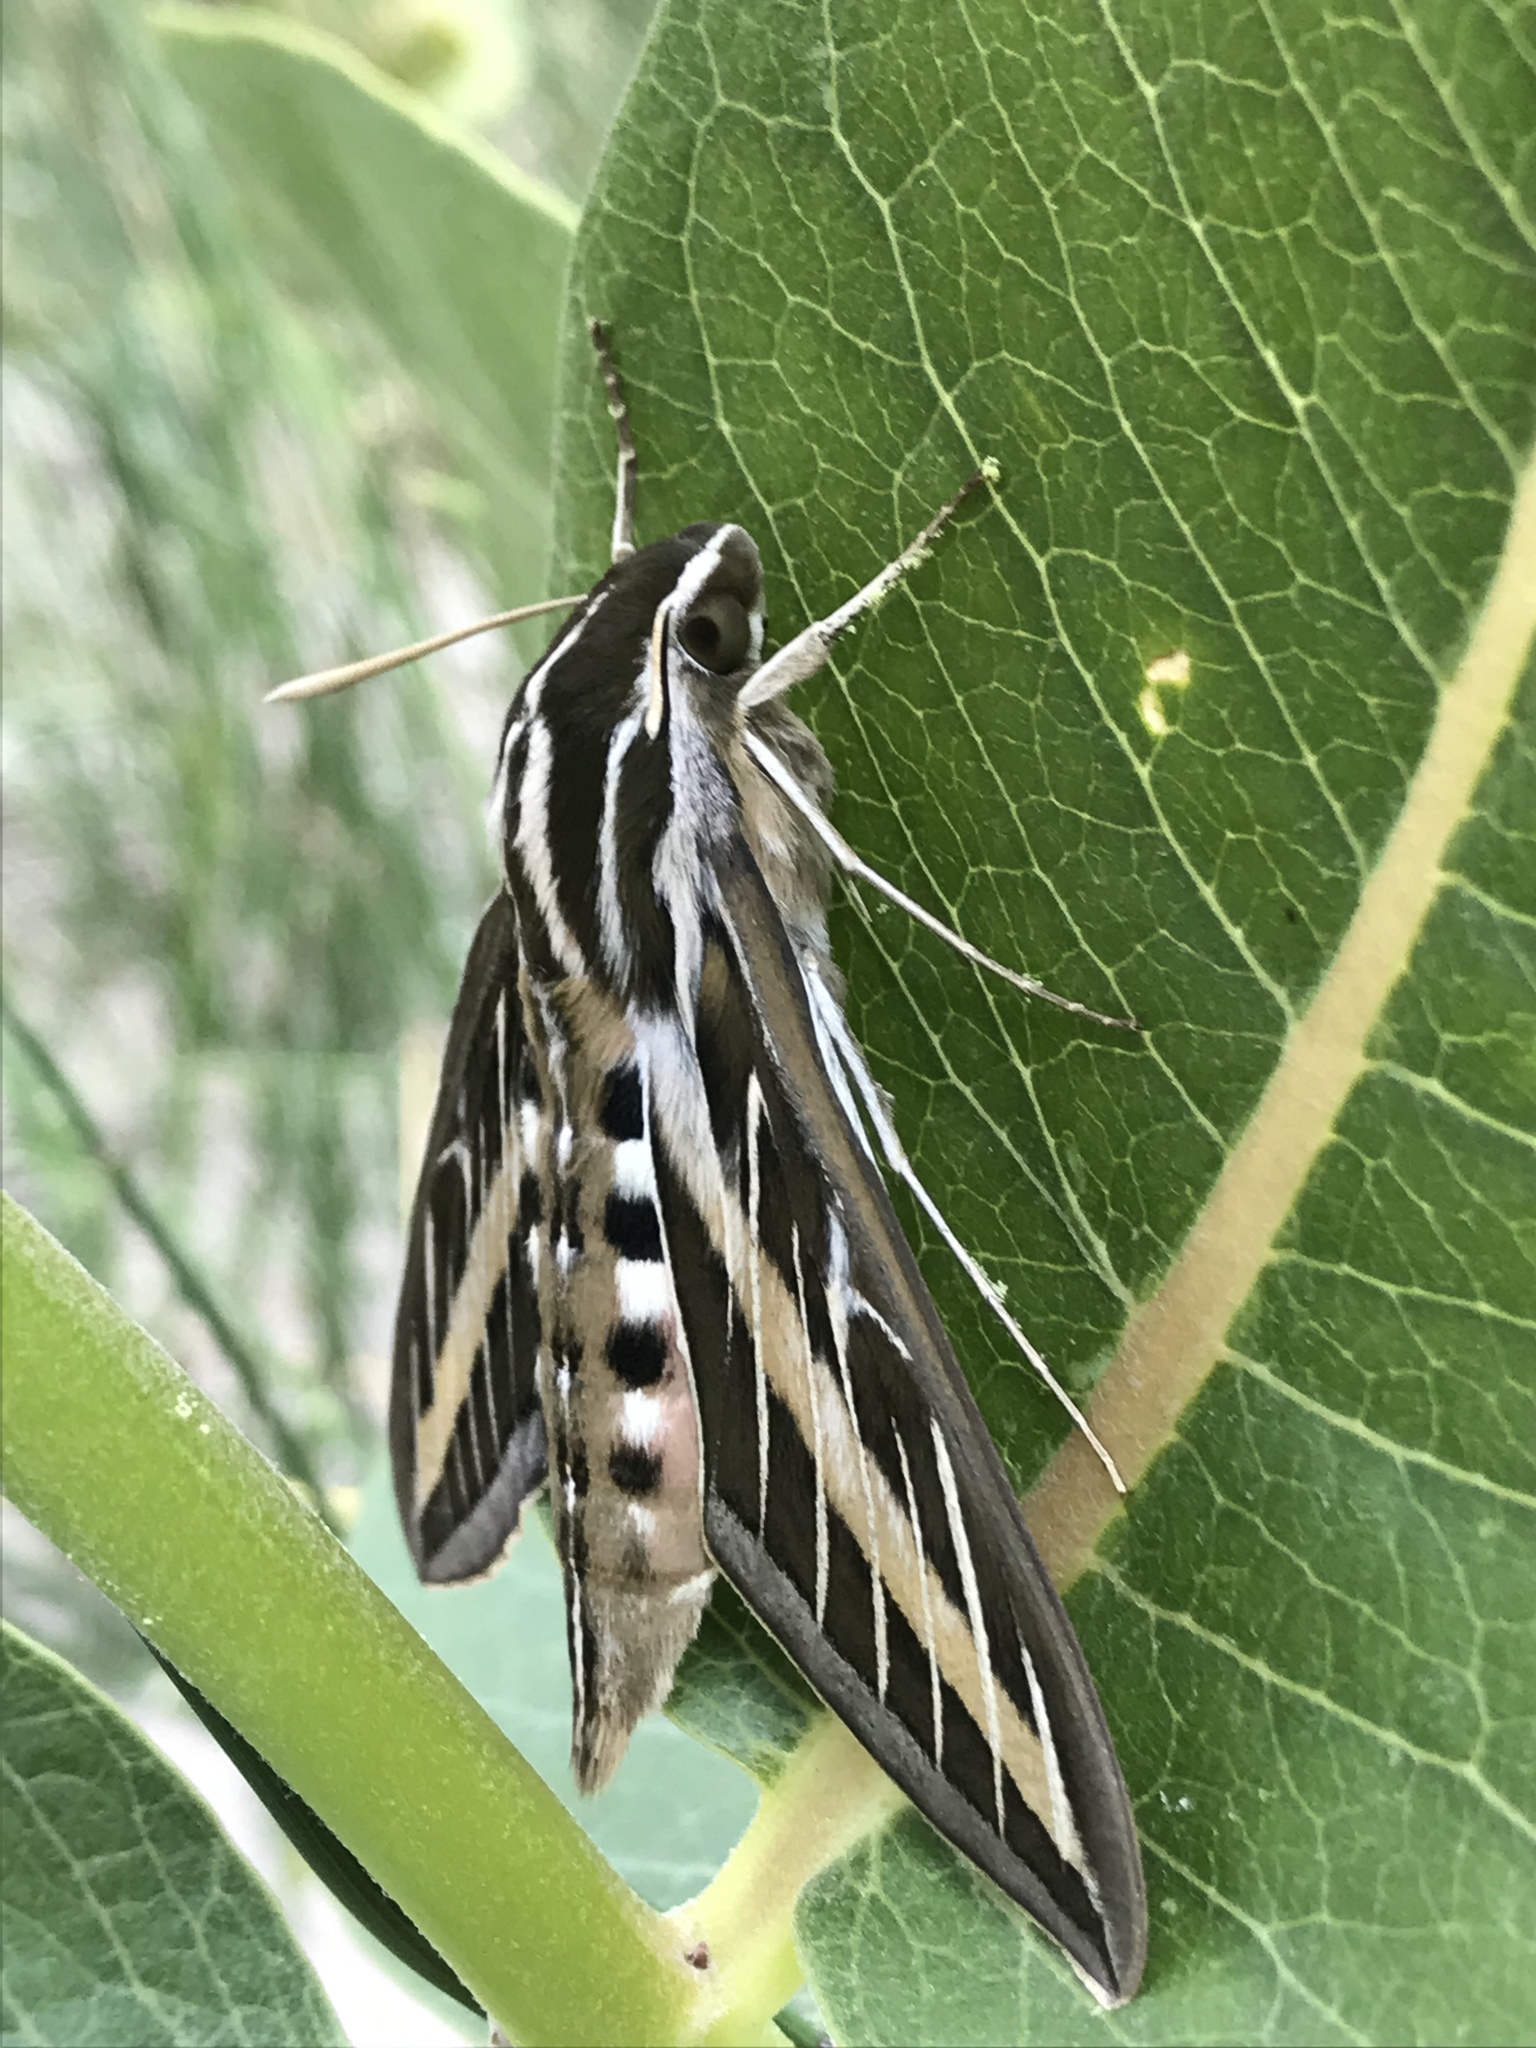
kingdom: Animalia
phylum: Arthropoda
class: Insecta
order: Lepidoptera
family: Sphingidae
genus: Hyles
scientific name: Hyles lineata
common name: White-lined sphinx
